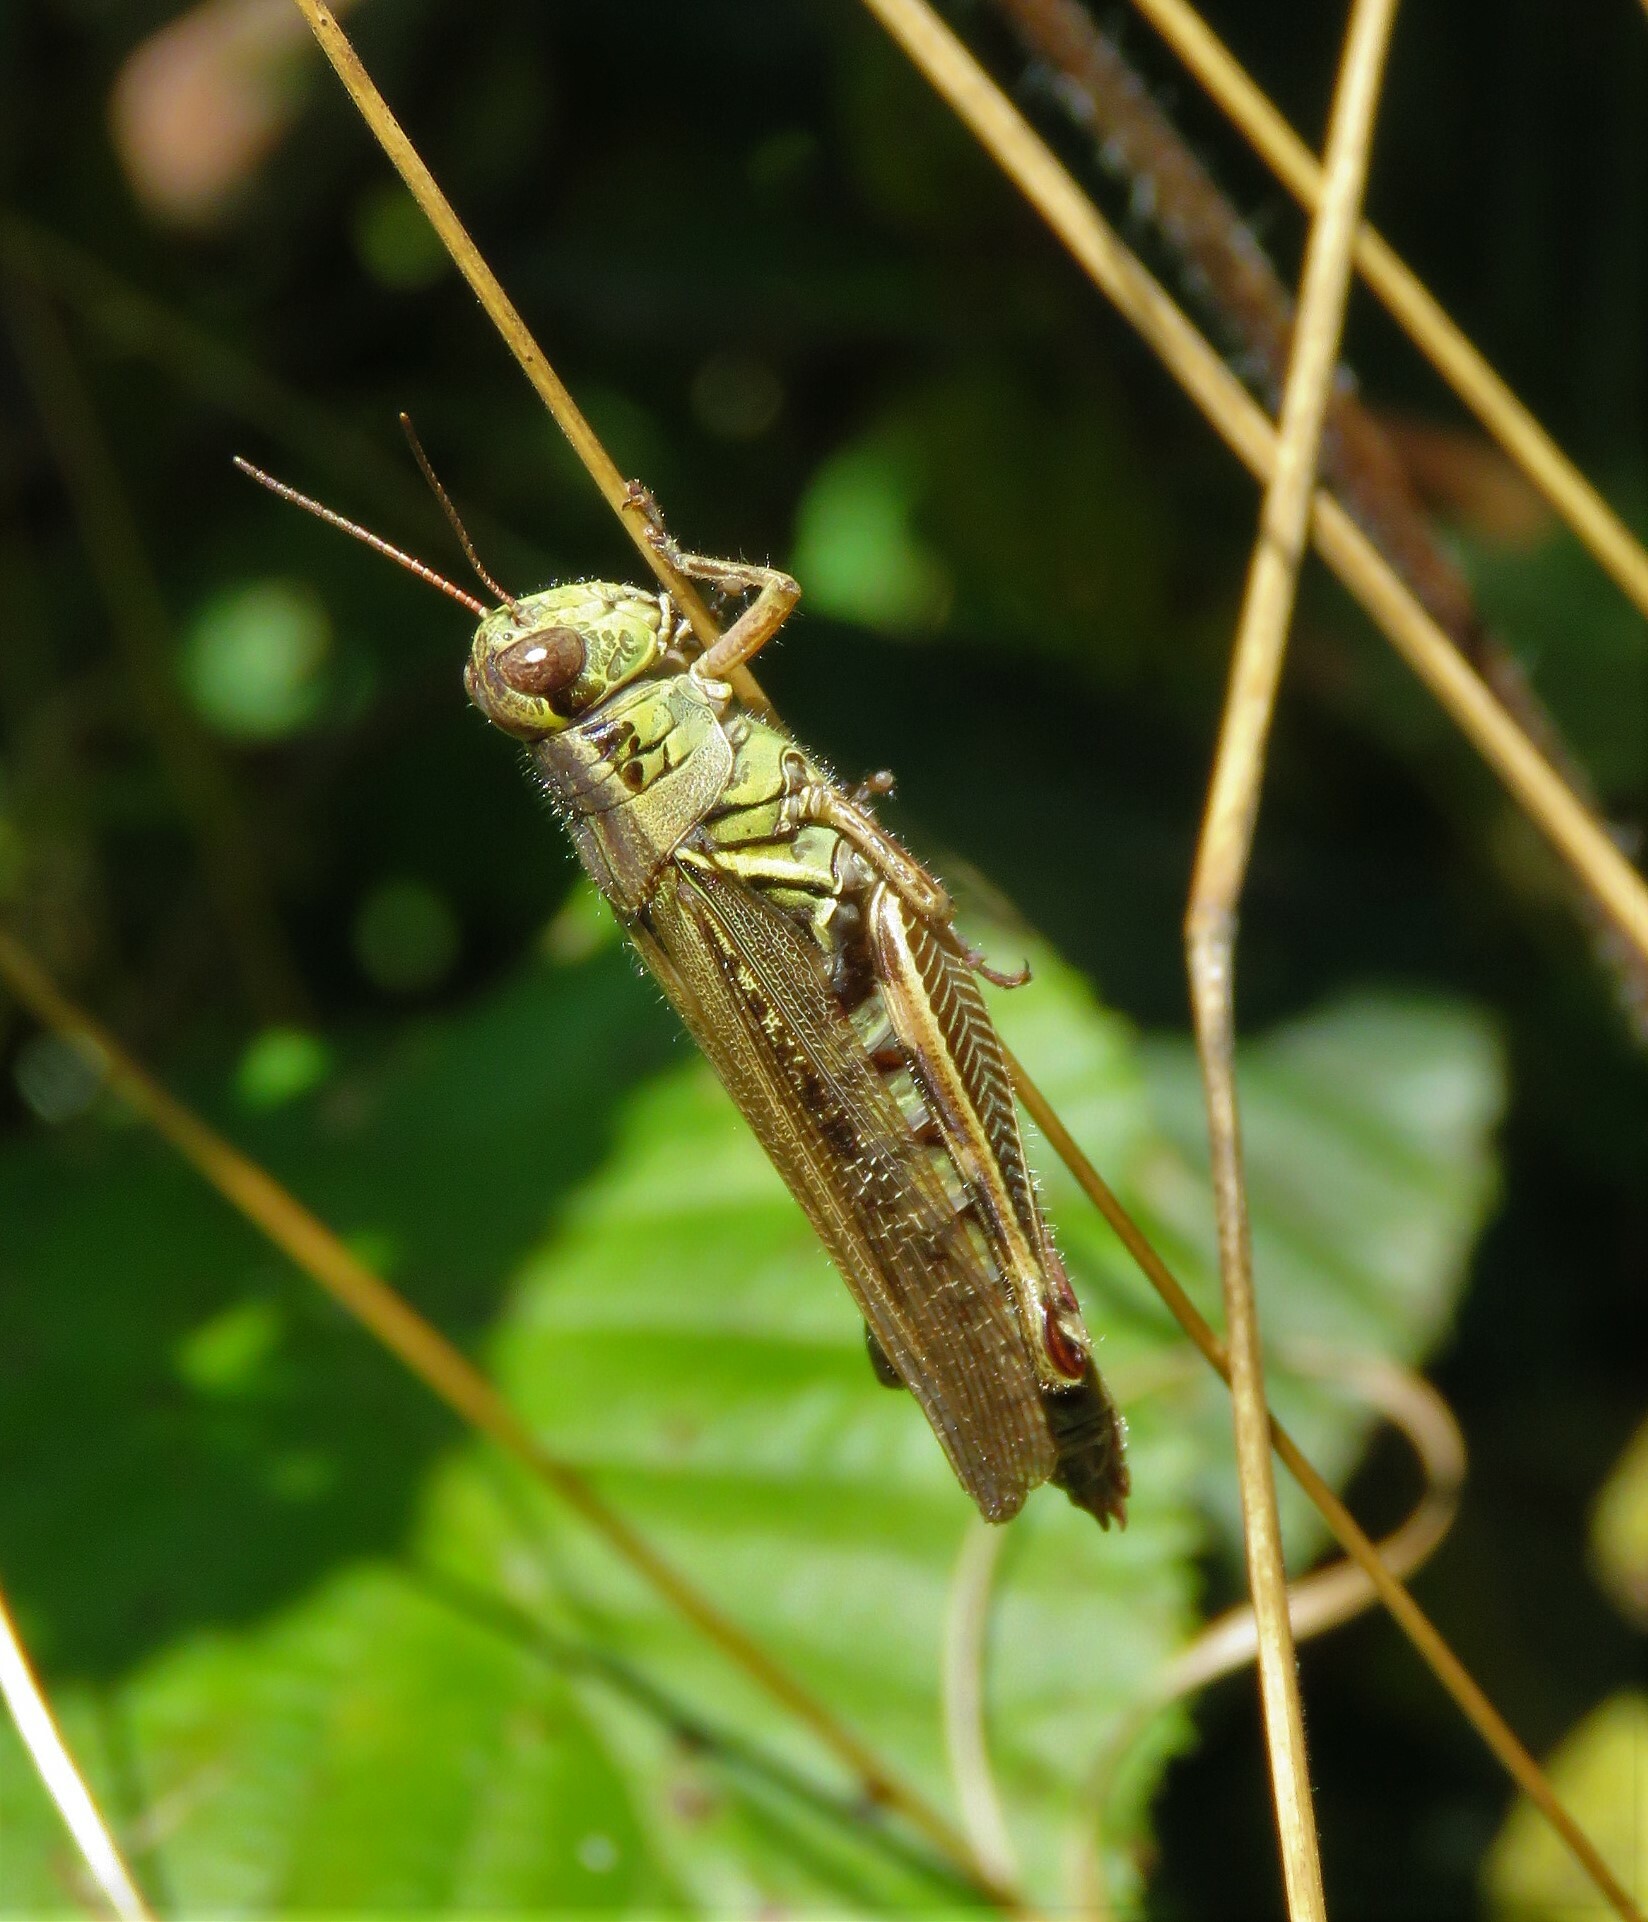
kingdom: Animalia
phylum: Arthropoda
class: Insecta
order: Orthoptera
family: Acrididae
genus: Melanoplus
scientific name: Melanoplus femurrubrum
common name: Red-legged grasshopper
